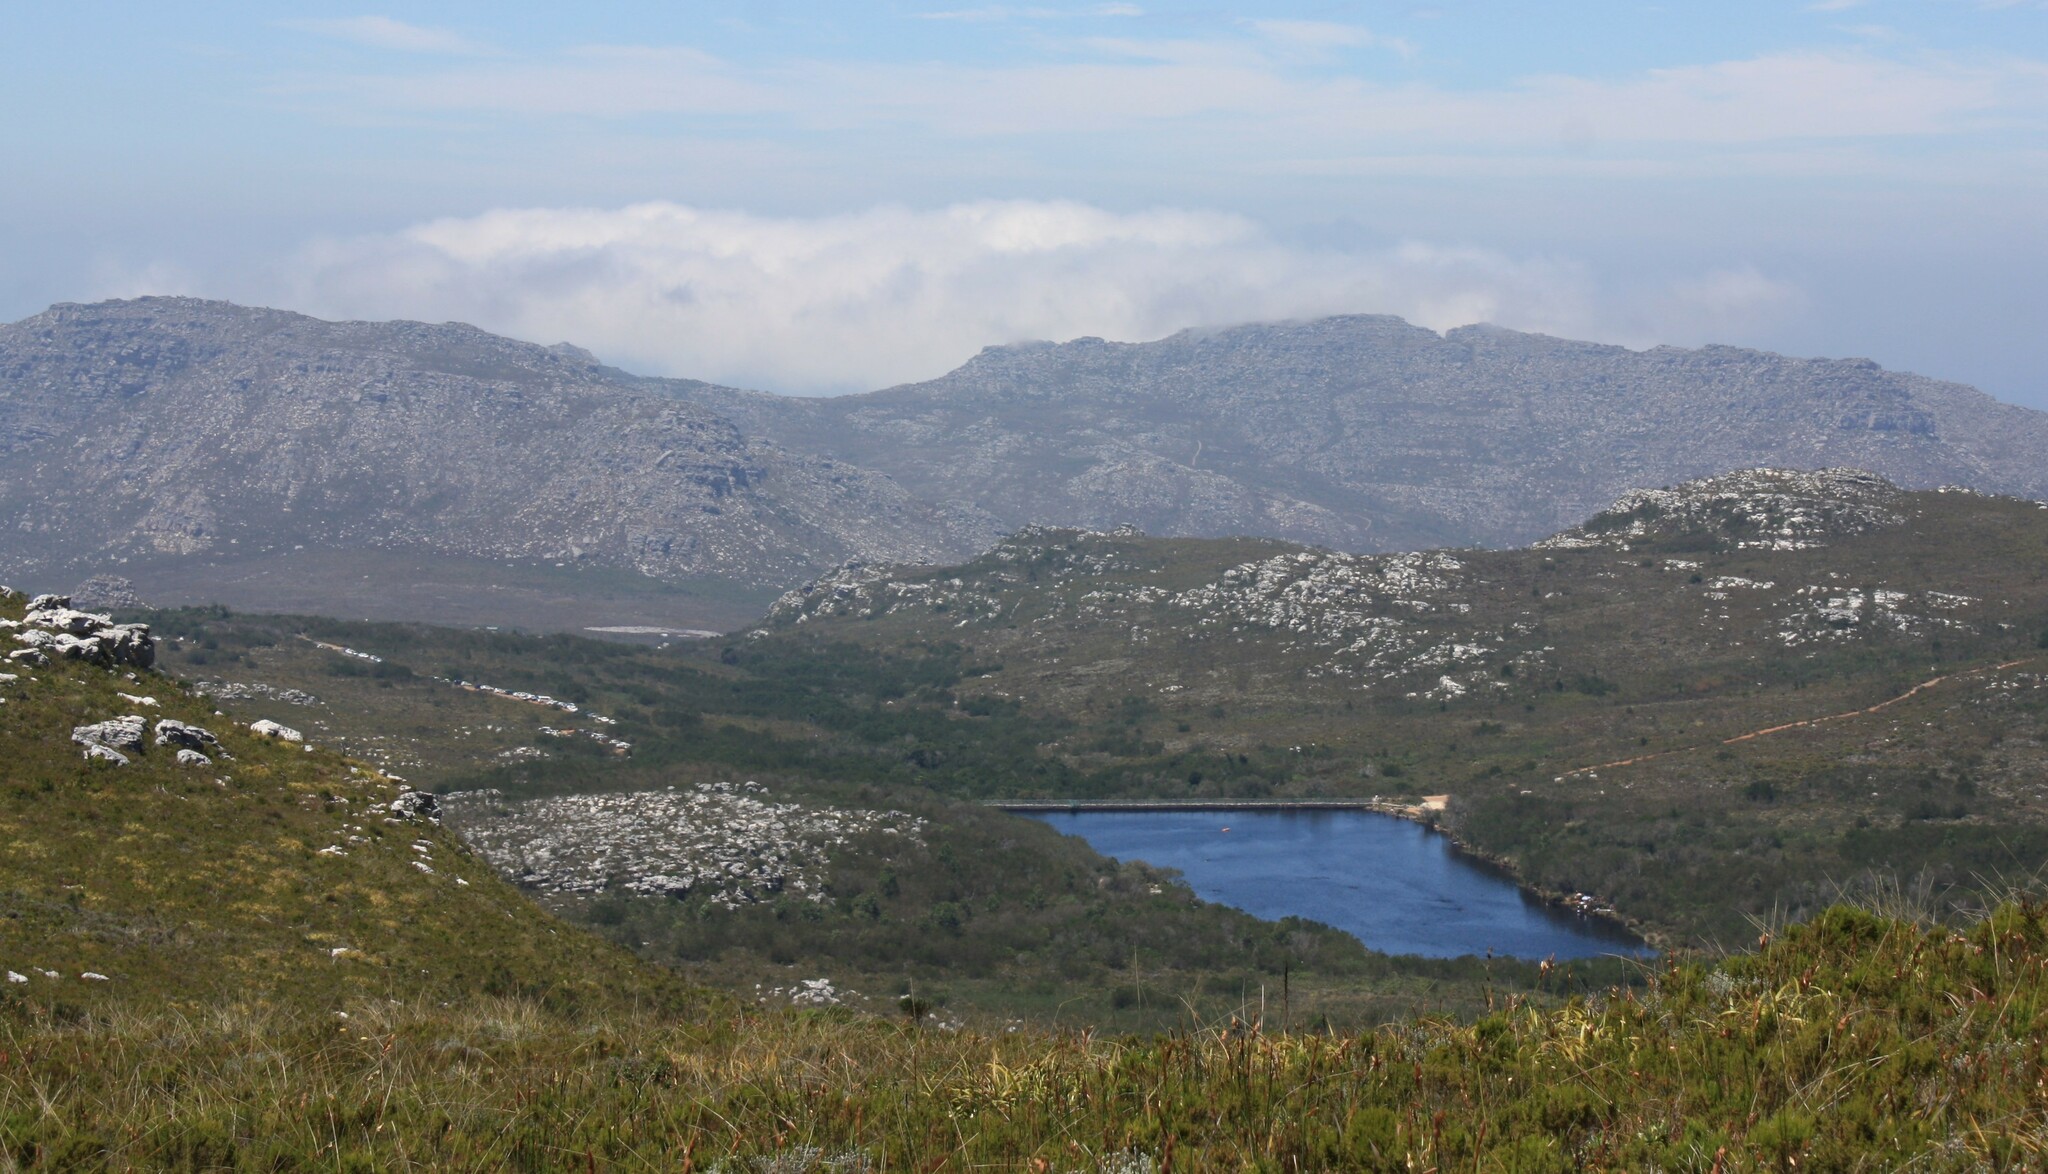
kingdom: Plantae
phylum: Tracheophyta
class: Liliopsida
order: Poales
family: Cyperaceae
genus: Tetraria
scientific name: Tetraria thermalis
